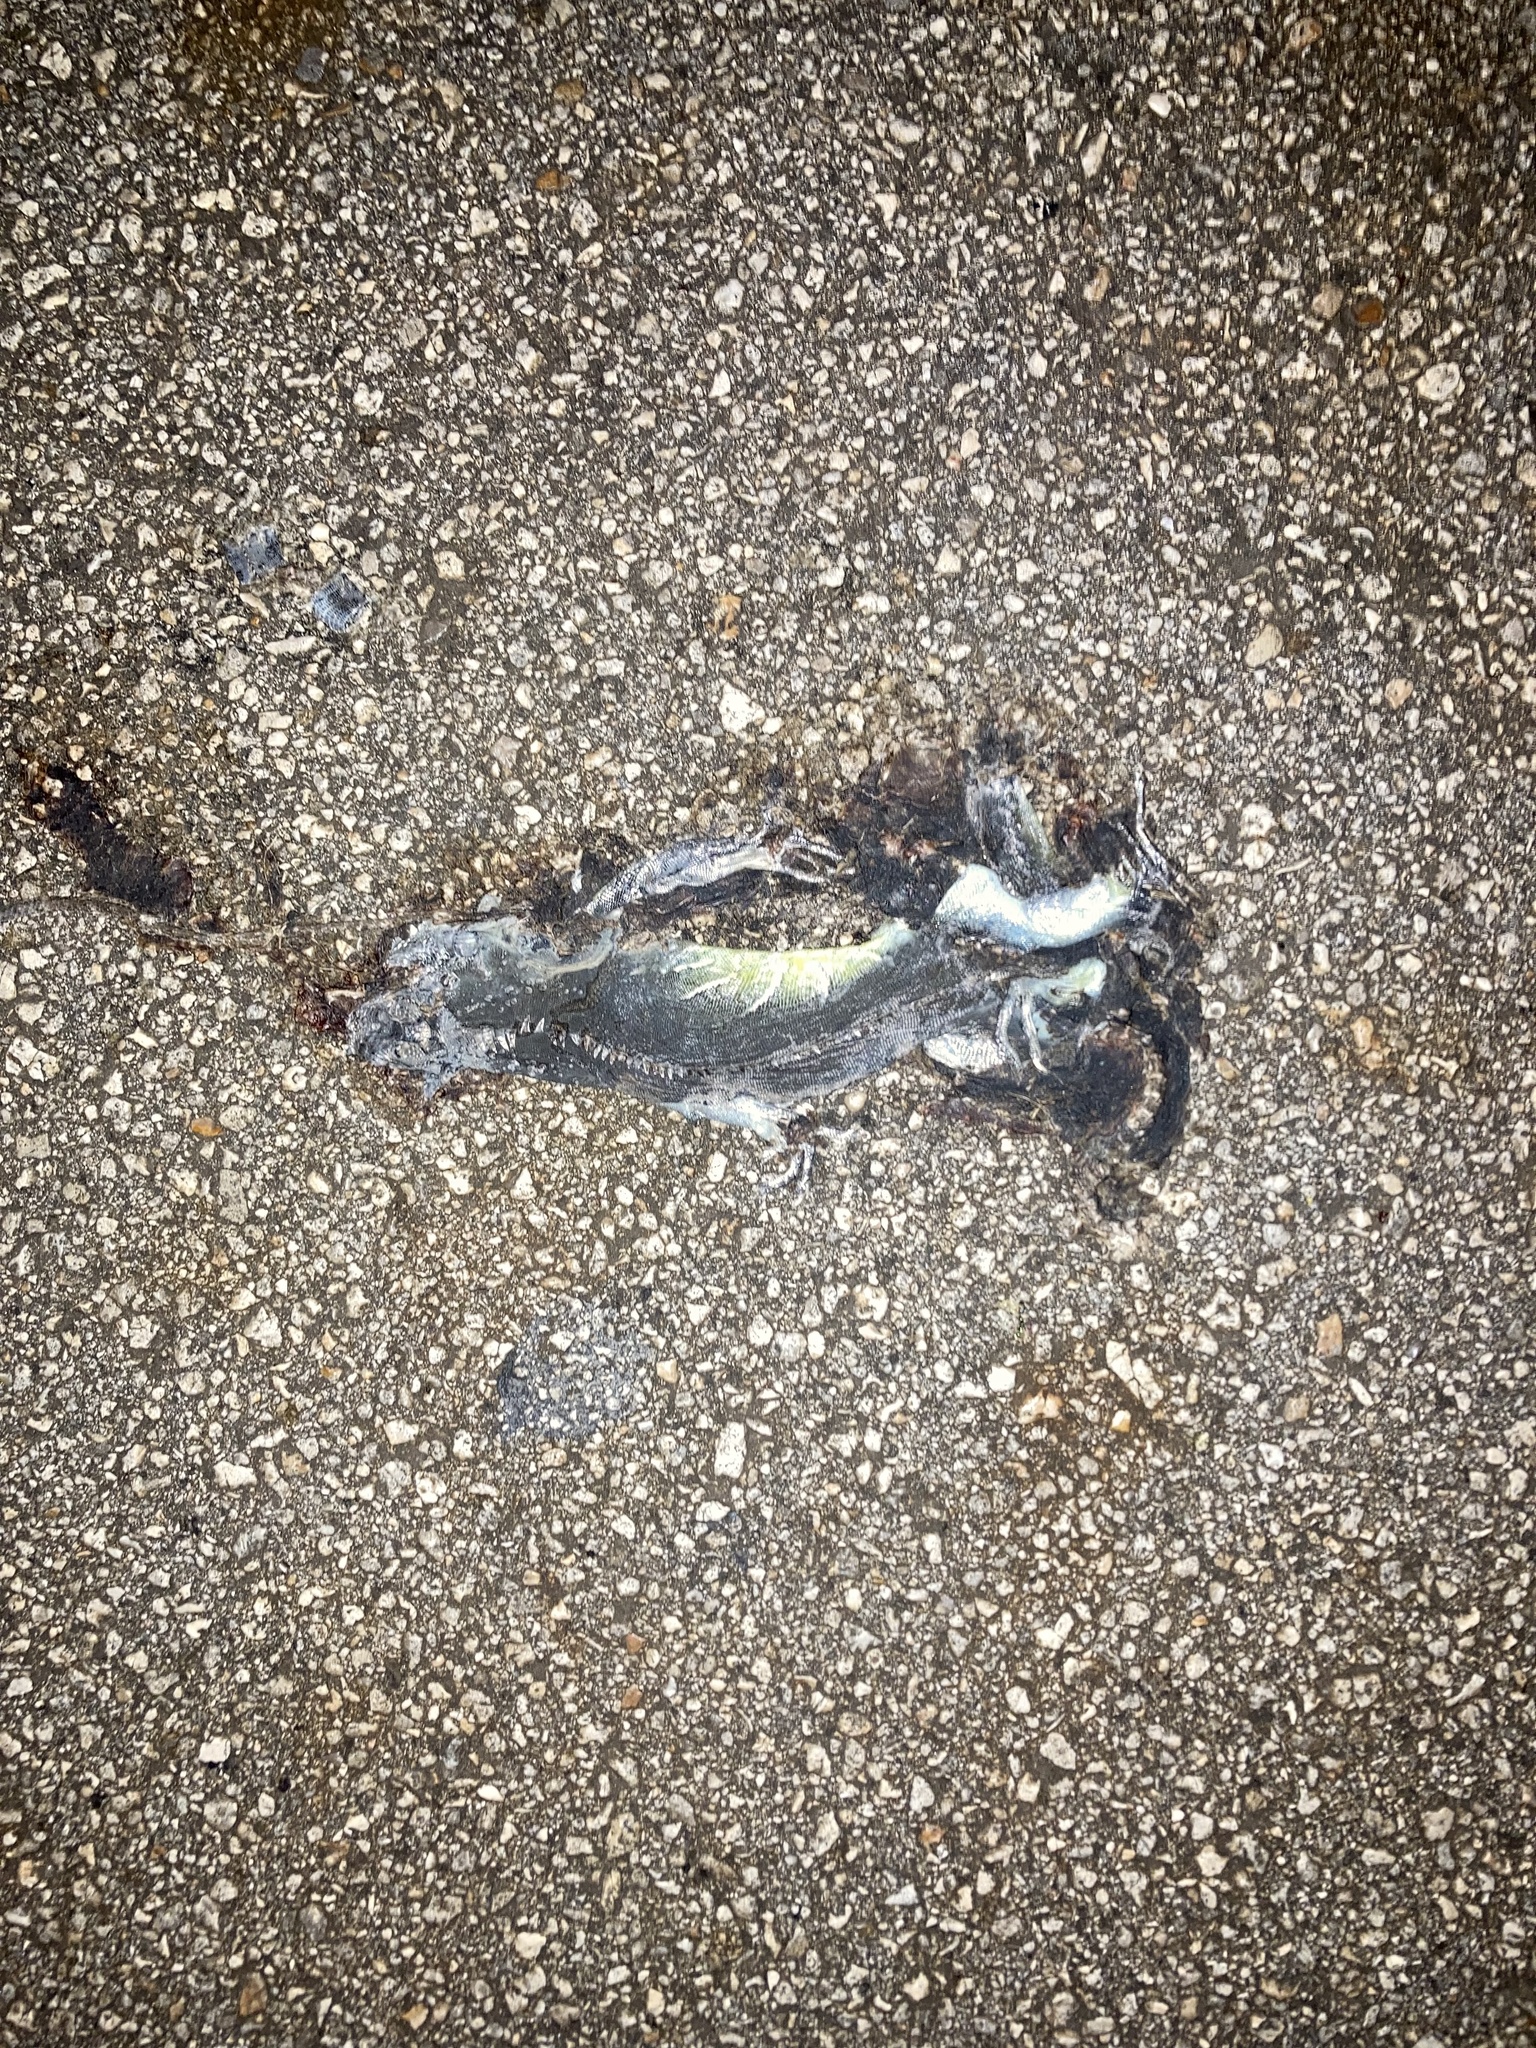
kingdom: Animalia
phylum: Chordata
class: Squamata
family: Iguanidae
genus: Iguana
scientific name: Iguana iguana
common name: Green iguana
